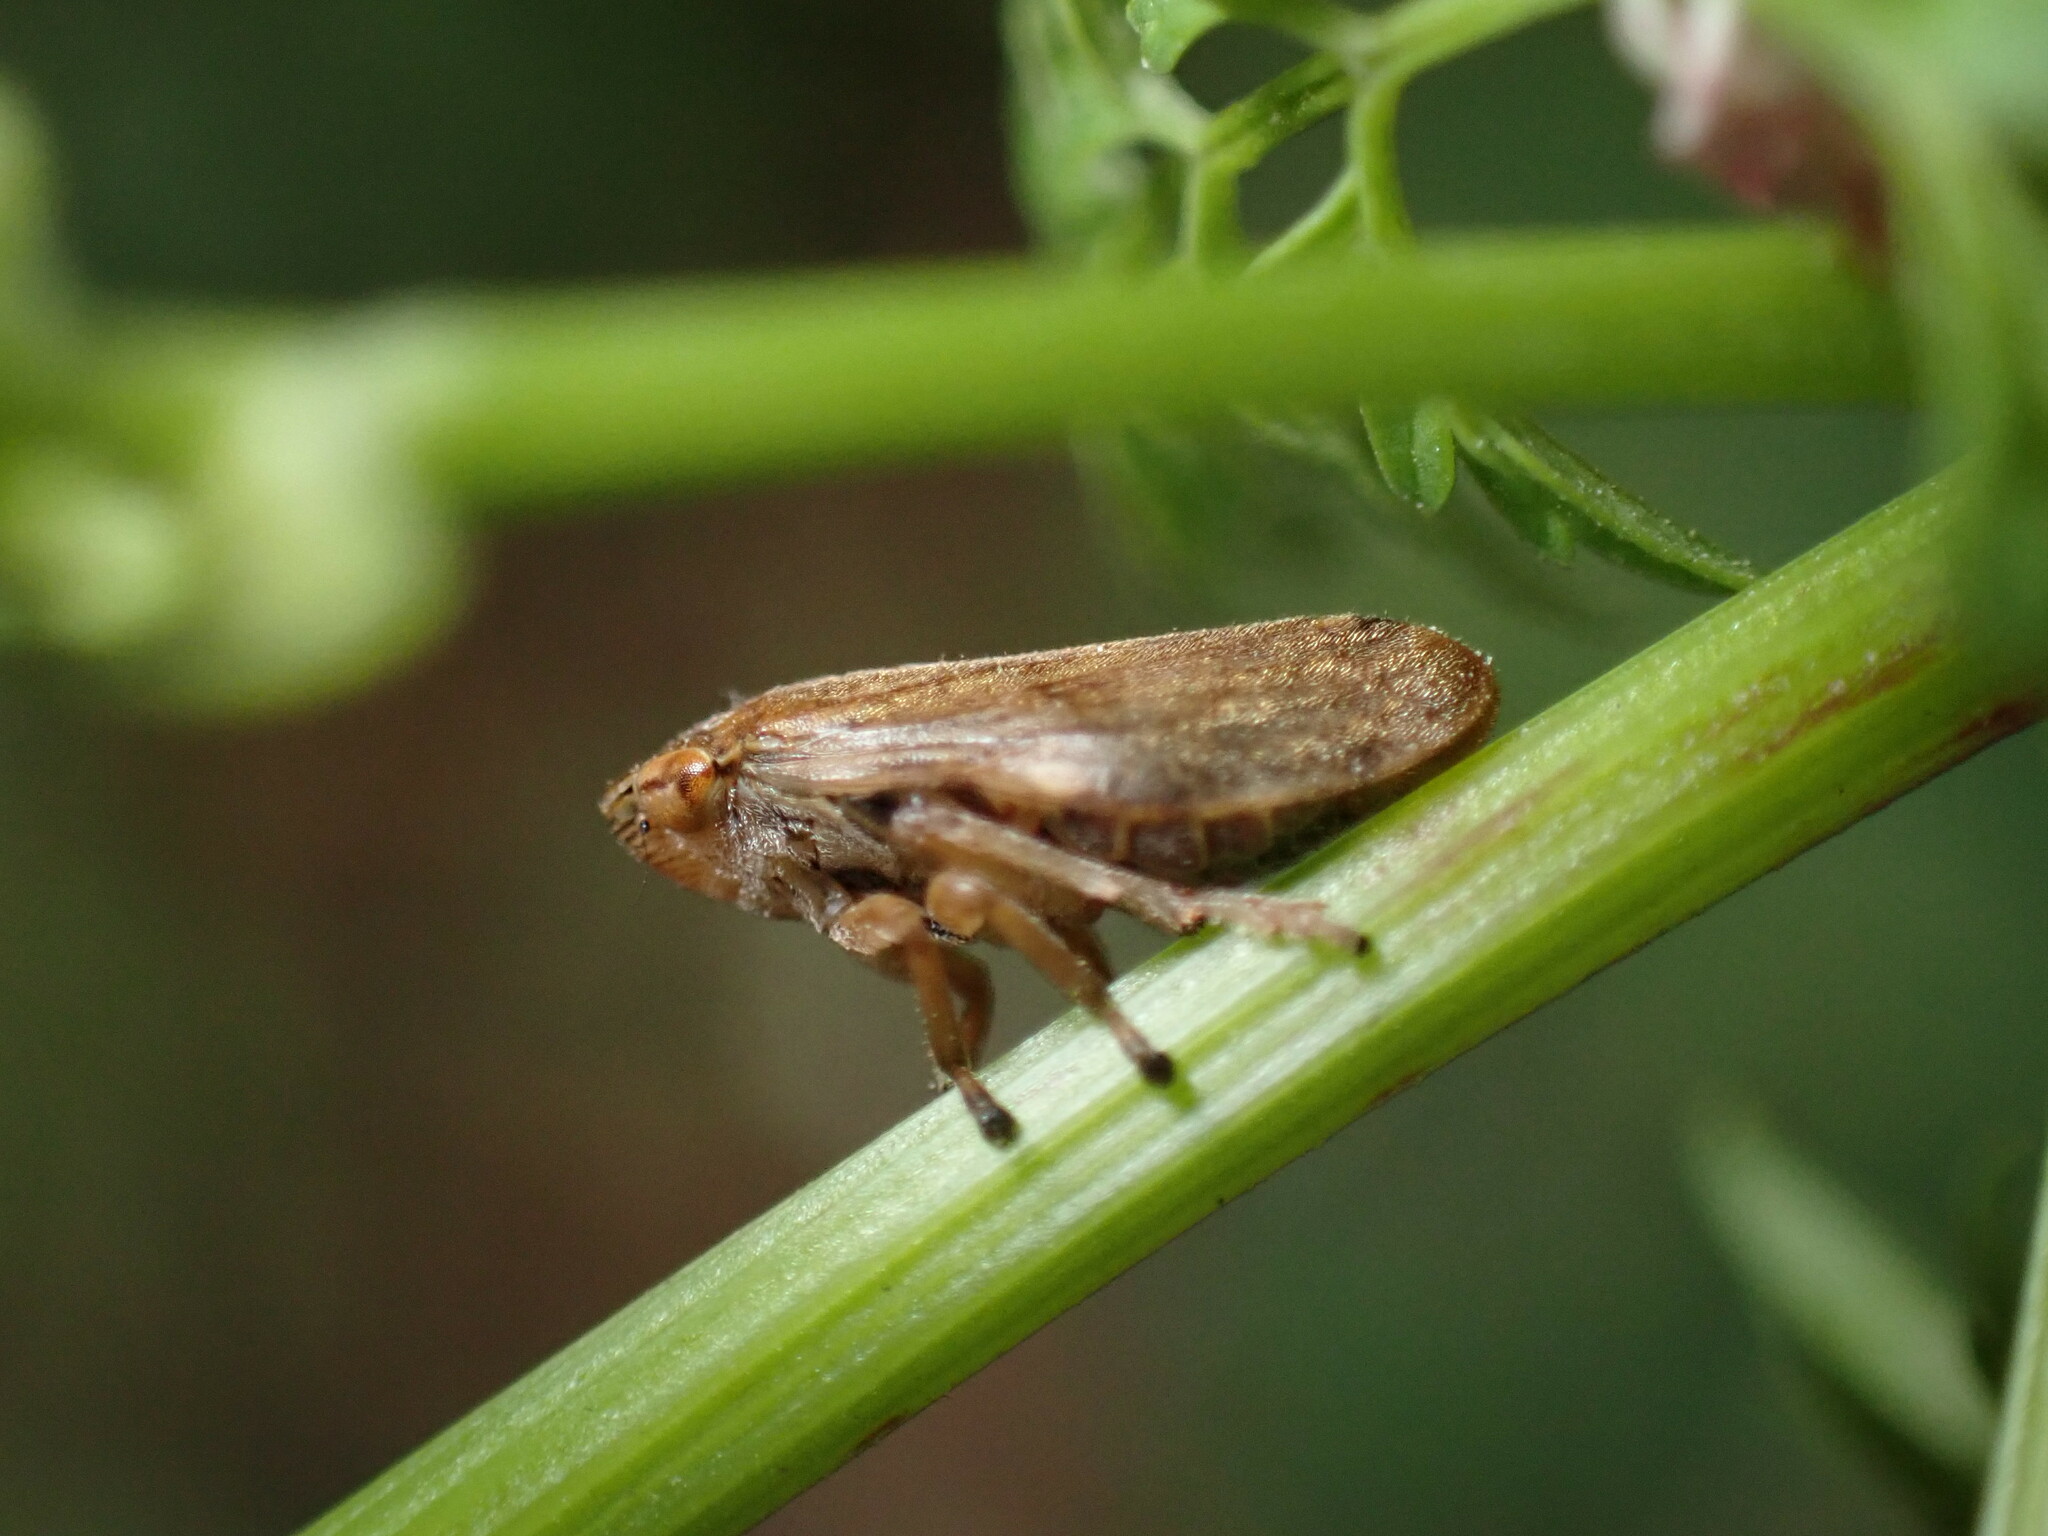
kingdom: Animalia
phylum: Arthropoda
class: Insecta
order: Hemiptera
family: Aphrophoridae
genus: Philaenus
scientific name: Philaenus spumarius
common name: Meadow spittlebug
